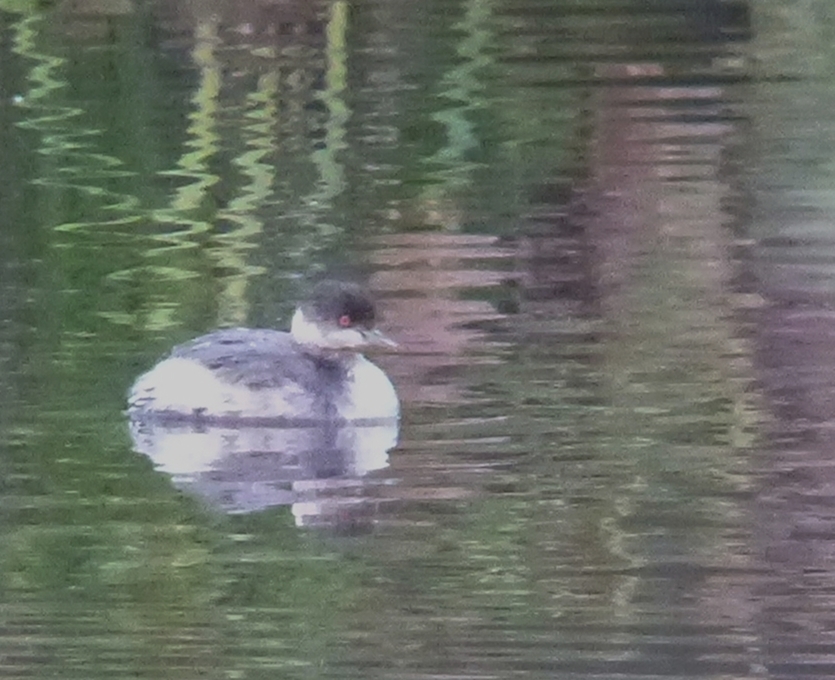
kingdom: Animalia
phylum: Chordata
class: Aves
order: Podicipediformes
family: Podicipedidae
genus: Podiceps
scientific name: Podiceps nigricollis
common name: Black-necked grebe
